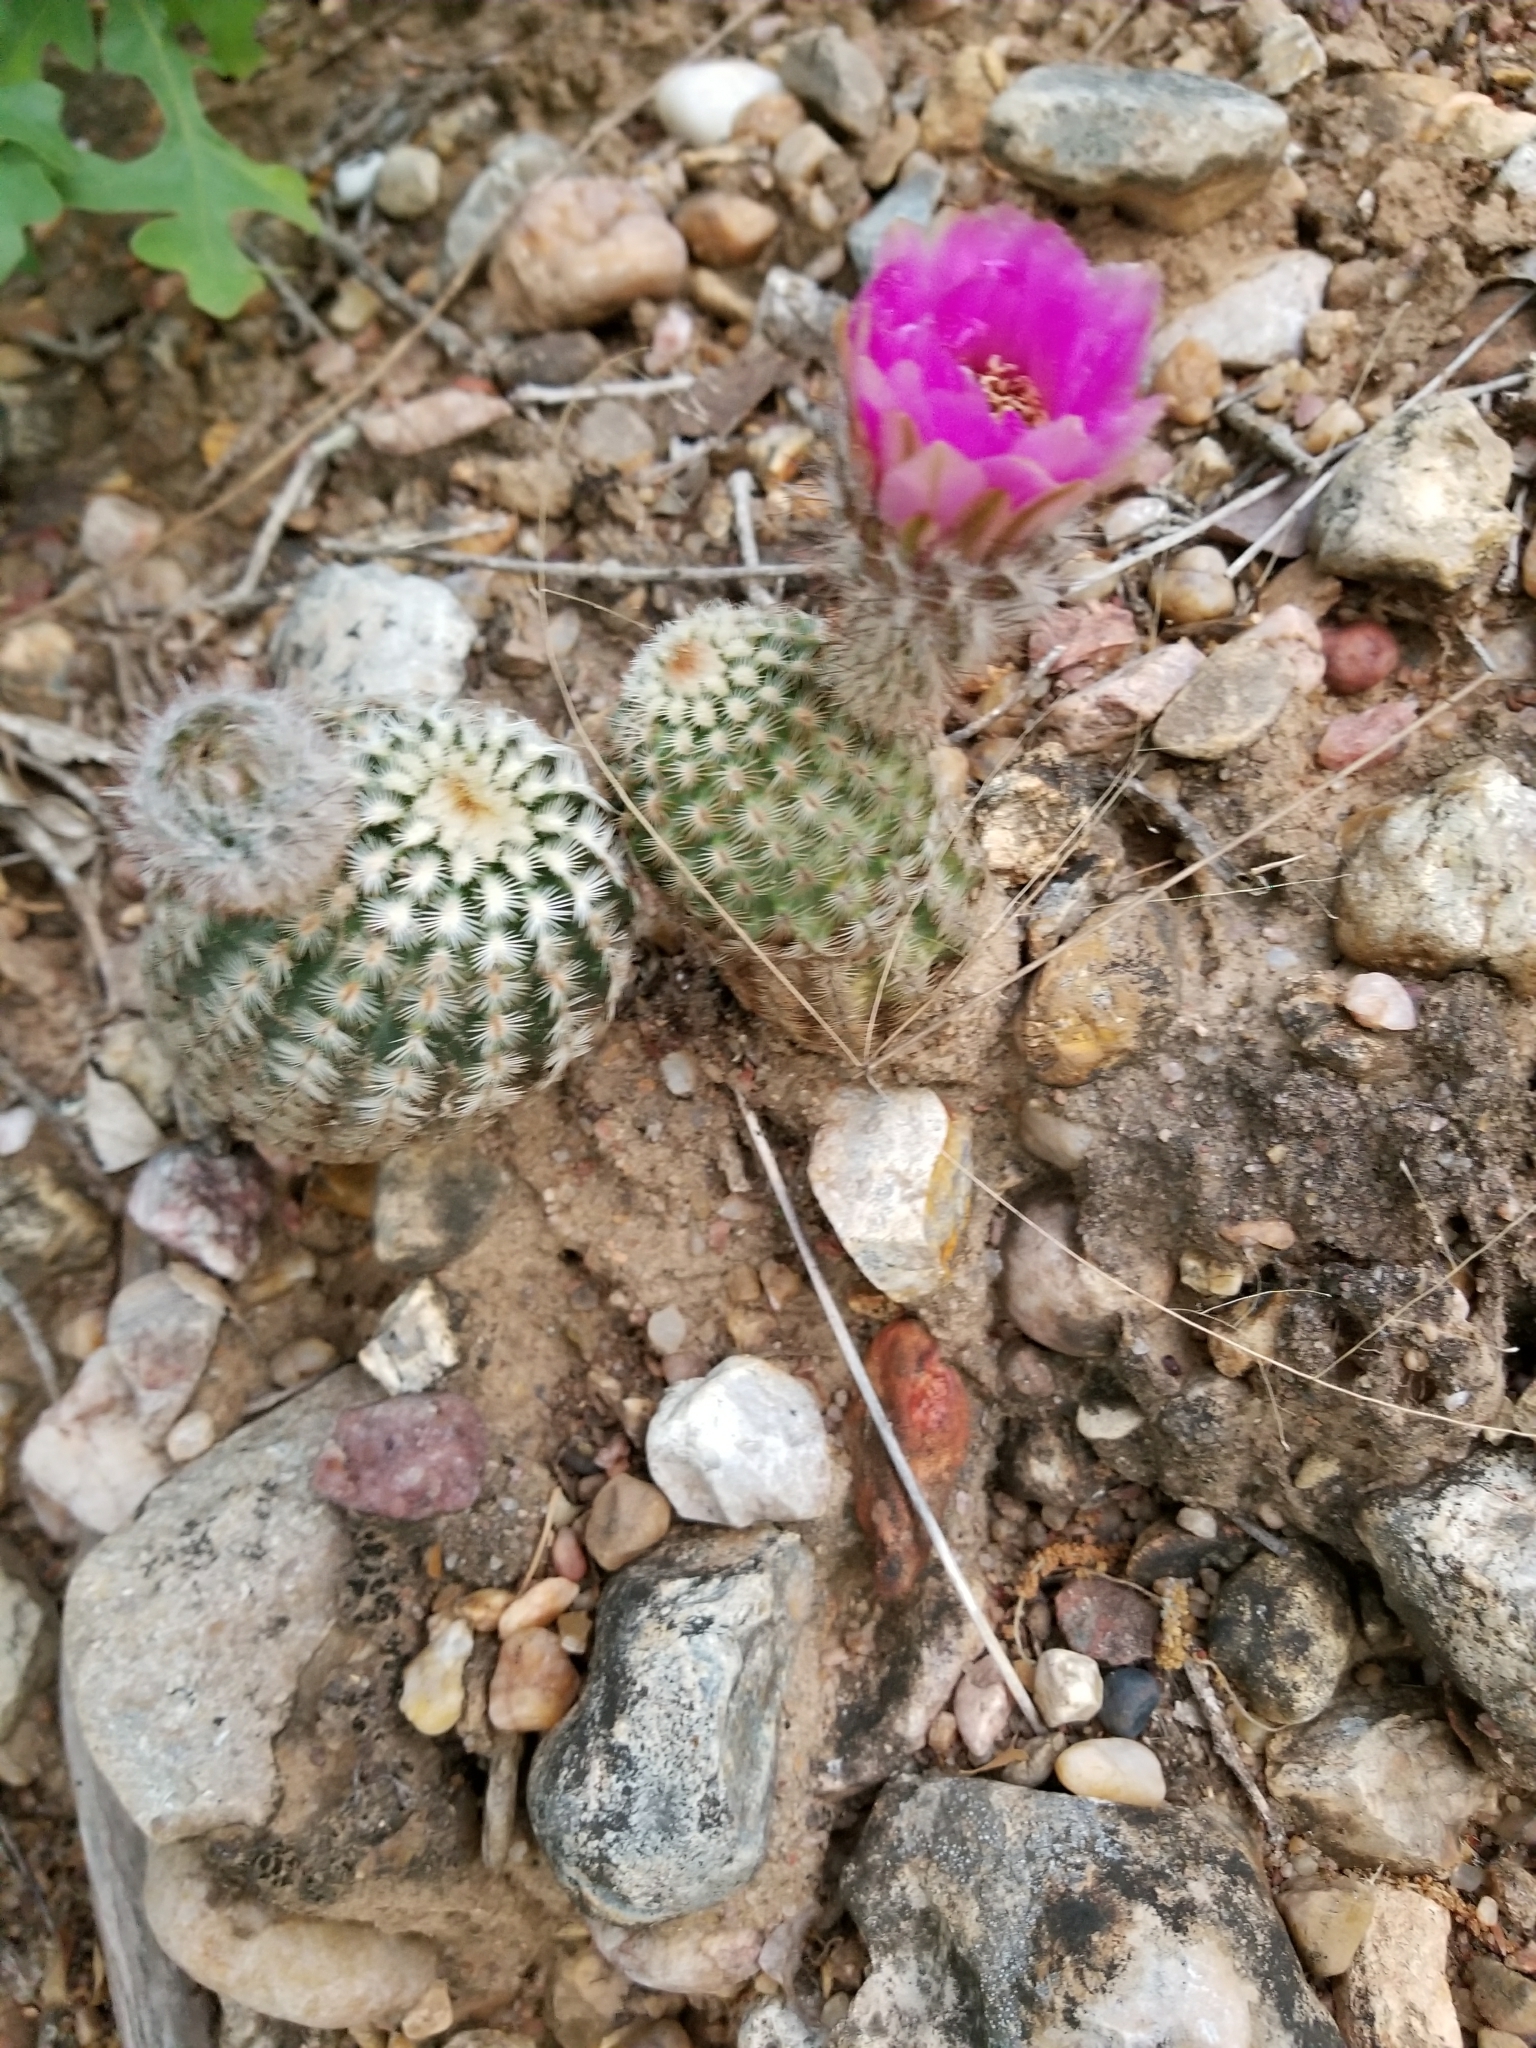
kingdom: Plantae
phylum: Tracheophyta
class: Magnoliopsida
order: Caryophyllales
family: Cactaceae
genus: Echinocereus
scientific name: Echinocereus reichenbachii
